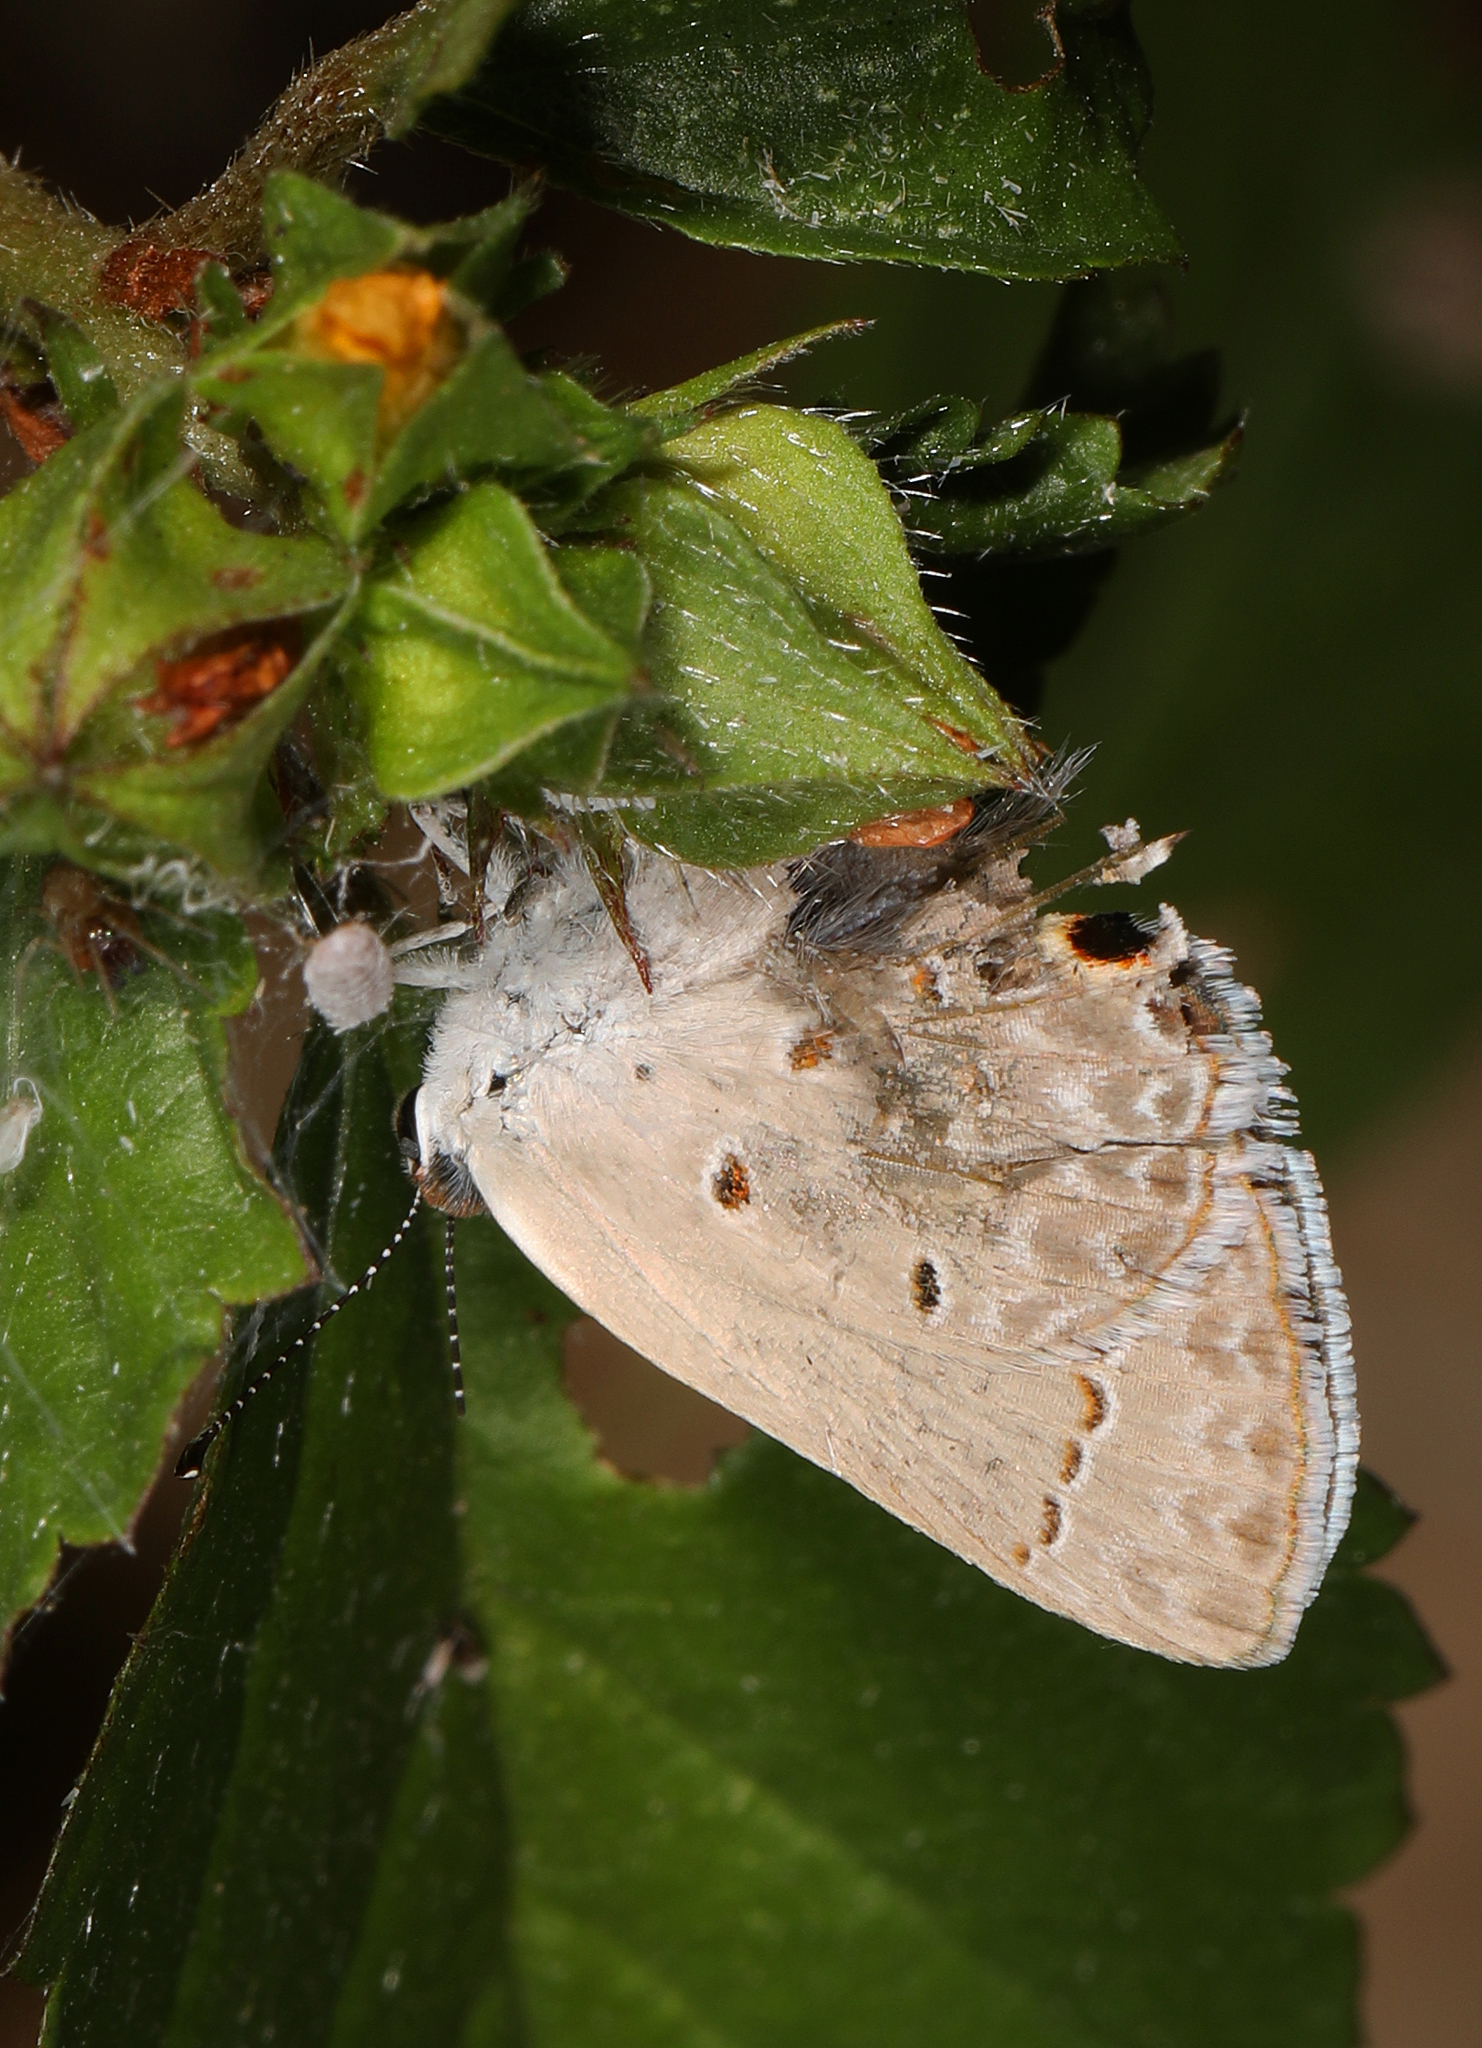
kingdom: Animalia
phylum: Arthropoda
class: Insecta
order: Lepidoptera
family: Lycaenidae
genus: Callicista
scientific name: Callicista columella
